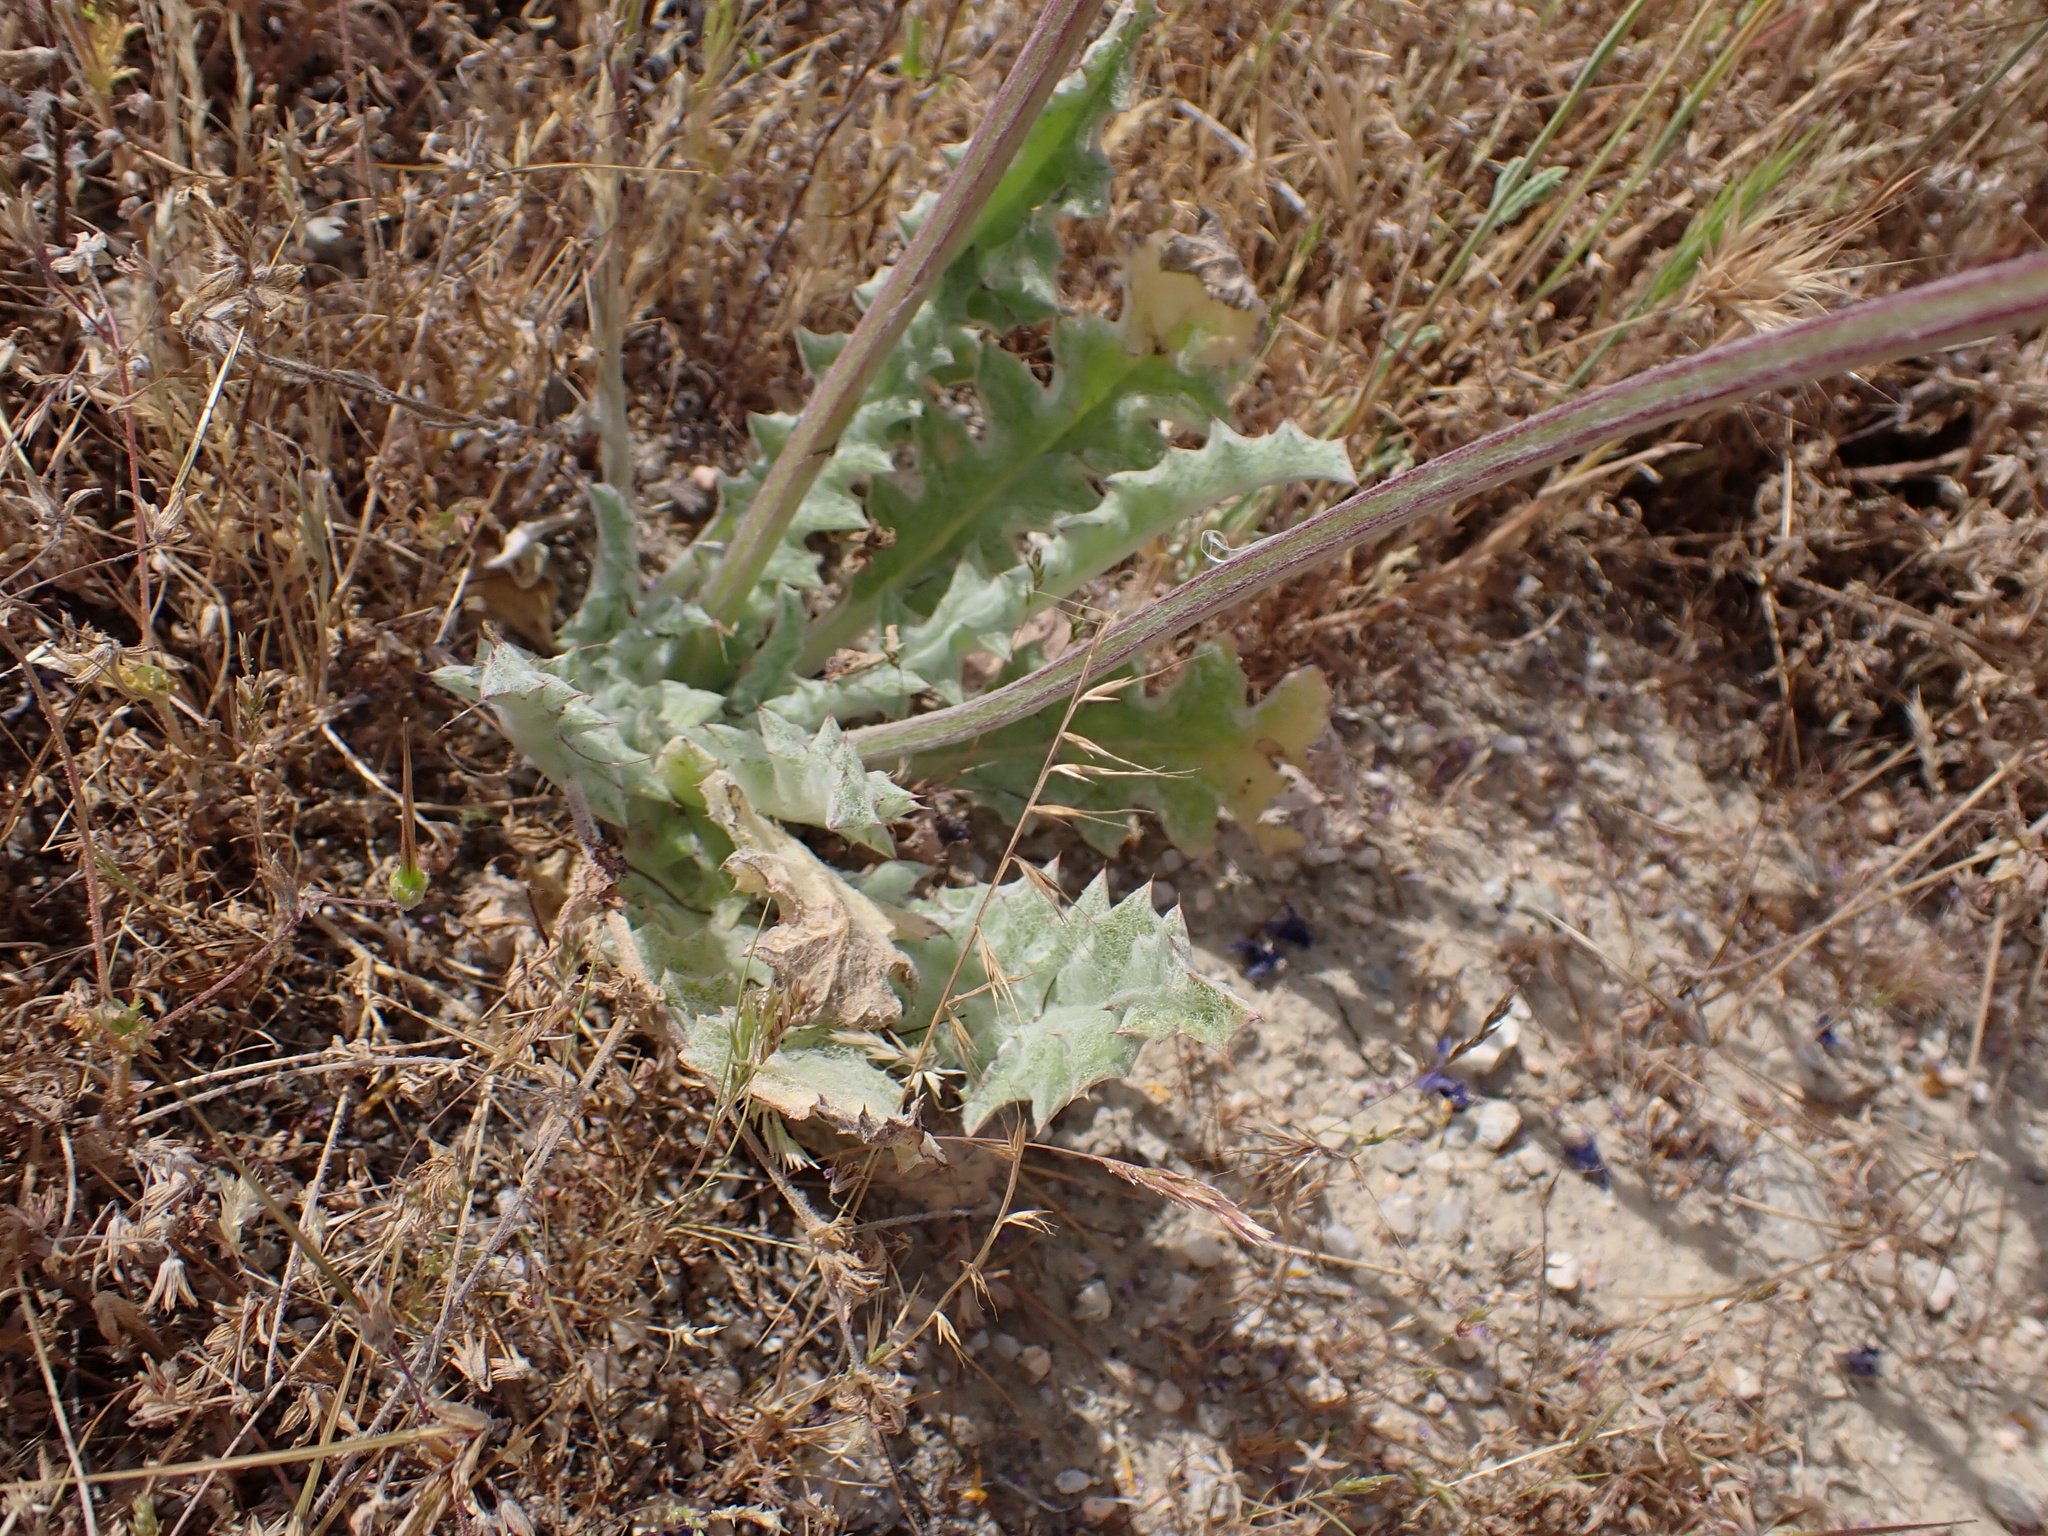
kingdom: Plantae
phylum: Tracheophyta
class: Magnoliopsida
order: Lamiales
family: Lamiaceae
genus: Salvia
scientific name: Salvia carduacea
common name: Thistle sage
